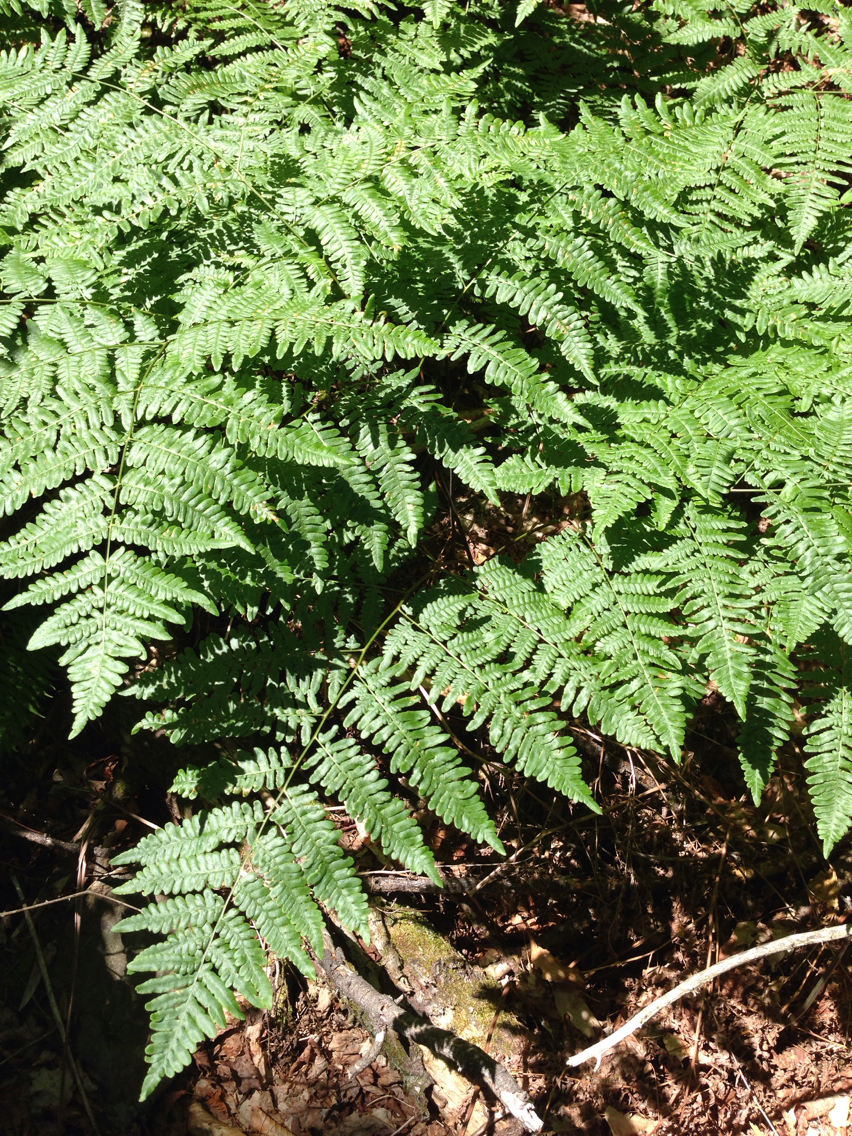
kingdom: Plantae
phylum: Tracheophyta
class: Polypodiopsida
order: Polypodiales
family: Dennstaedtiaceae
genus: Pteridium
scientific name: Pteridium aquilinum
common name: Bracken
